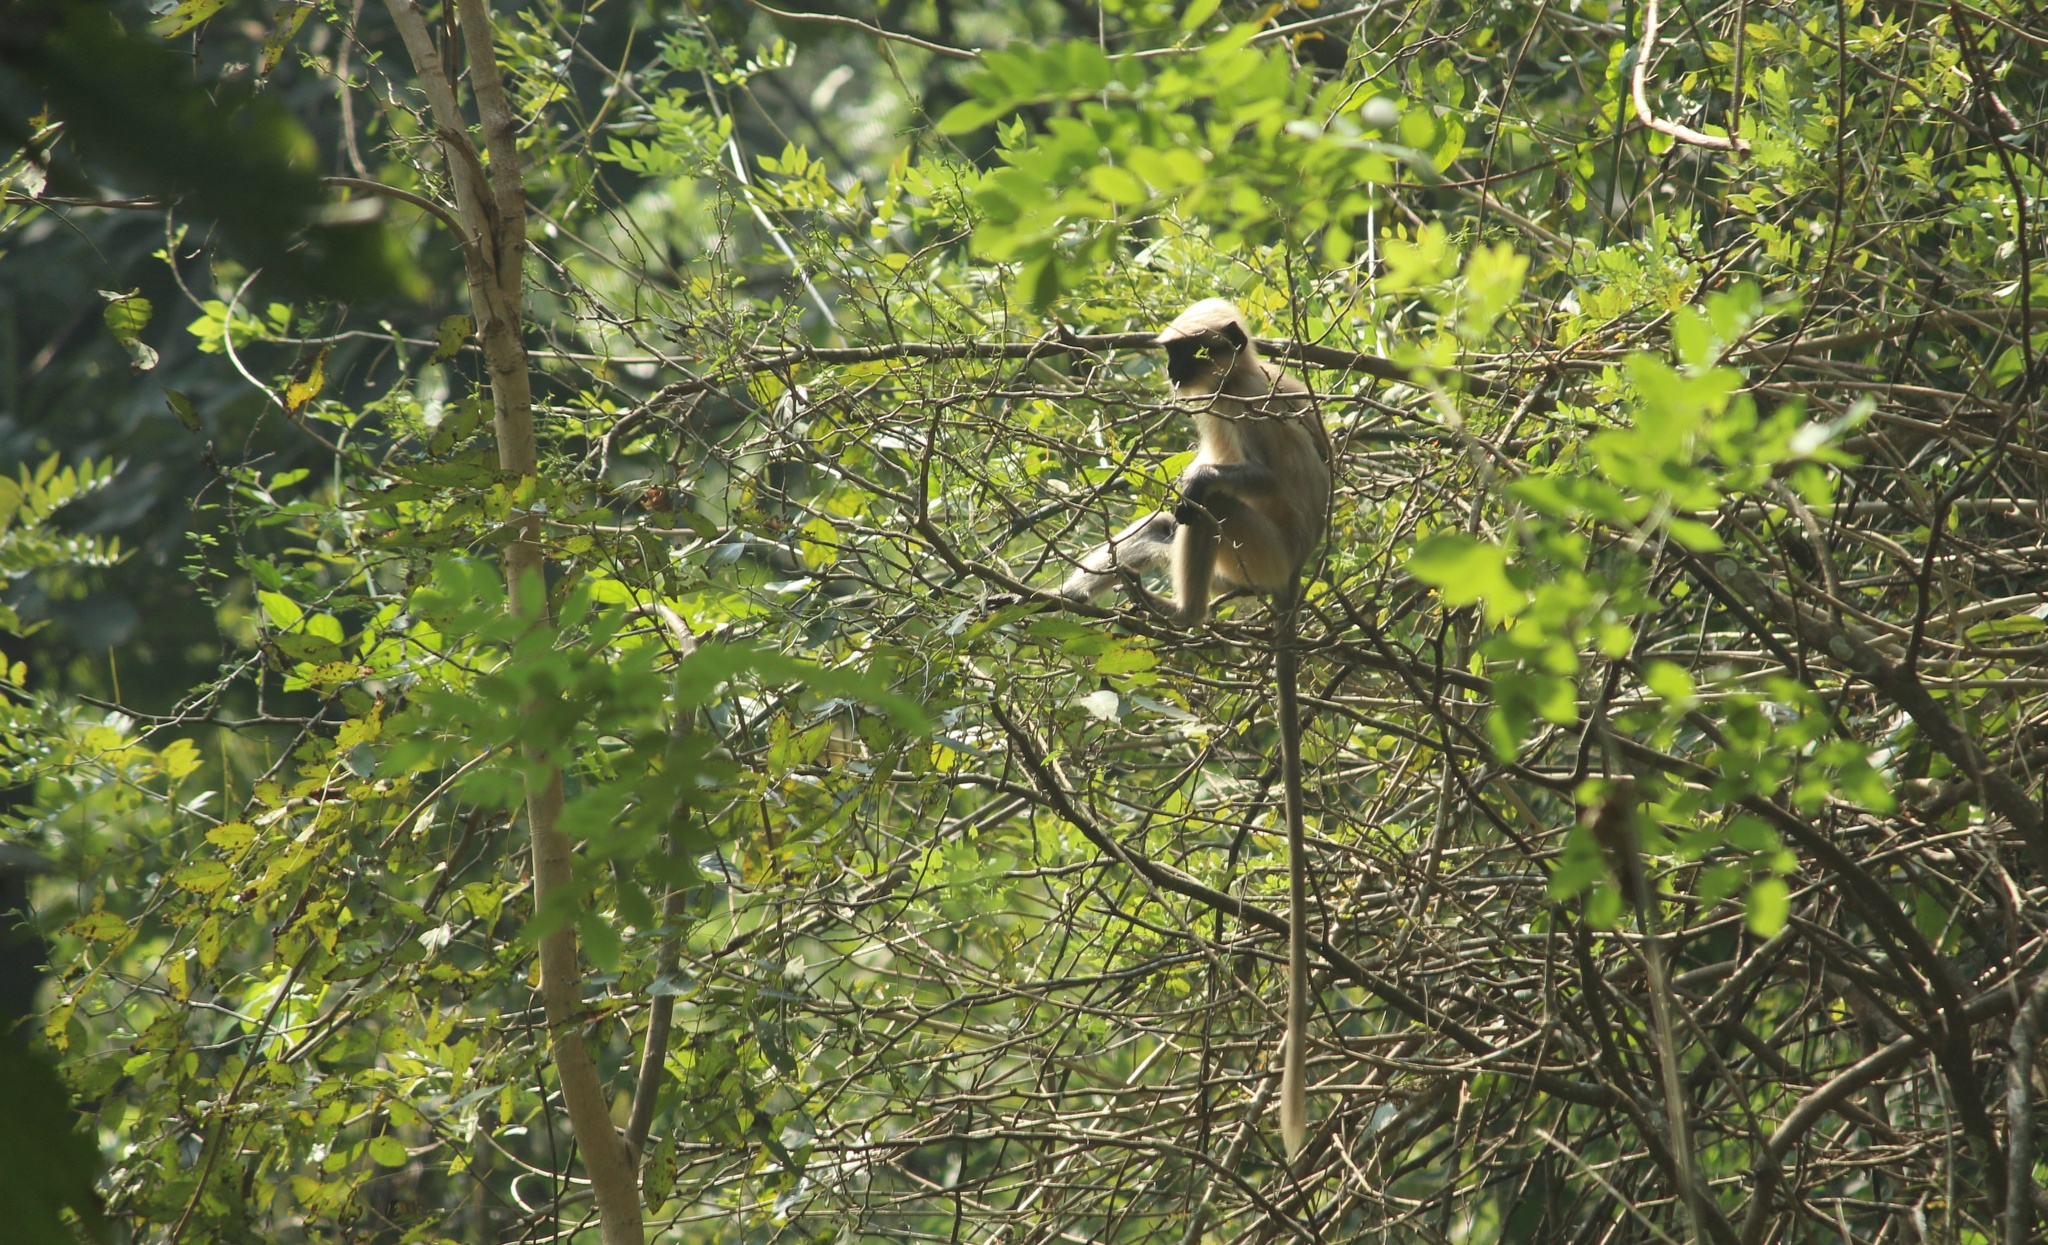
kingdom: Animalia
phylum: Chordata
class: Mammalia
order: Primates
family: Cercopithecidae
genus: Semnopithecus
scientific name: Semnopithecus hypoleucos
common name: Black-footed gray langur
